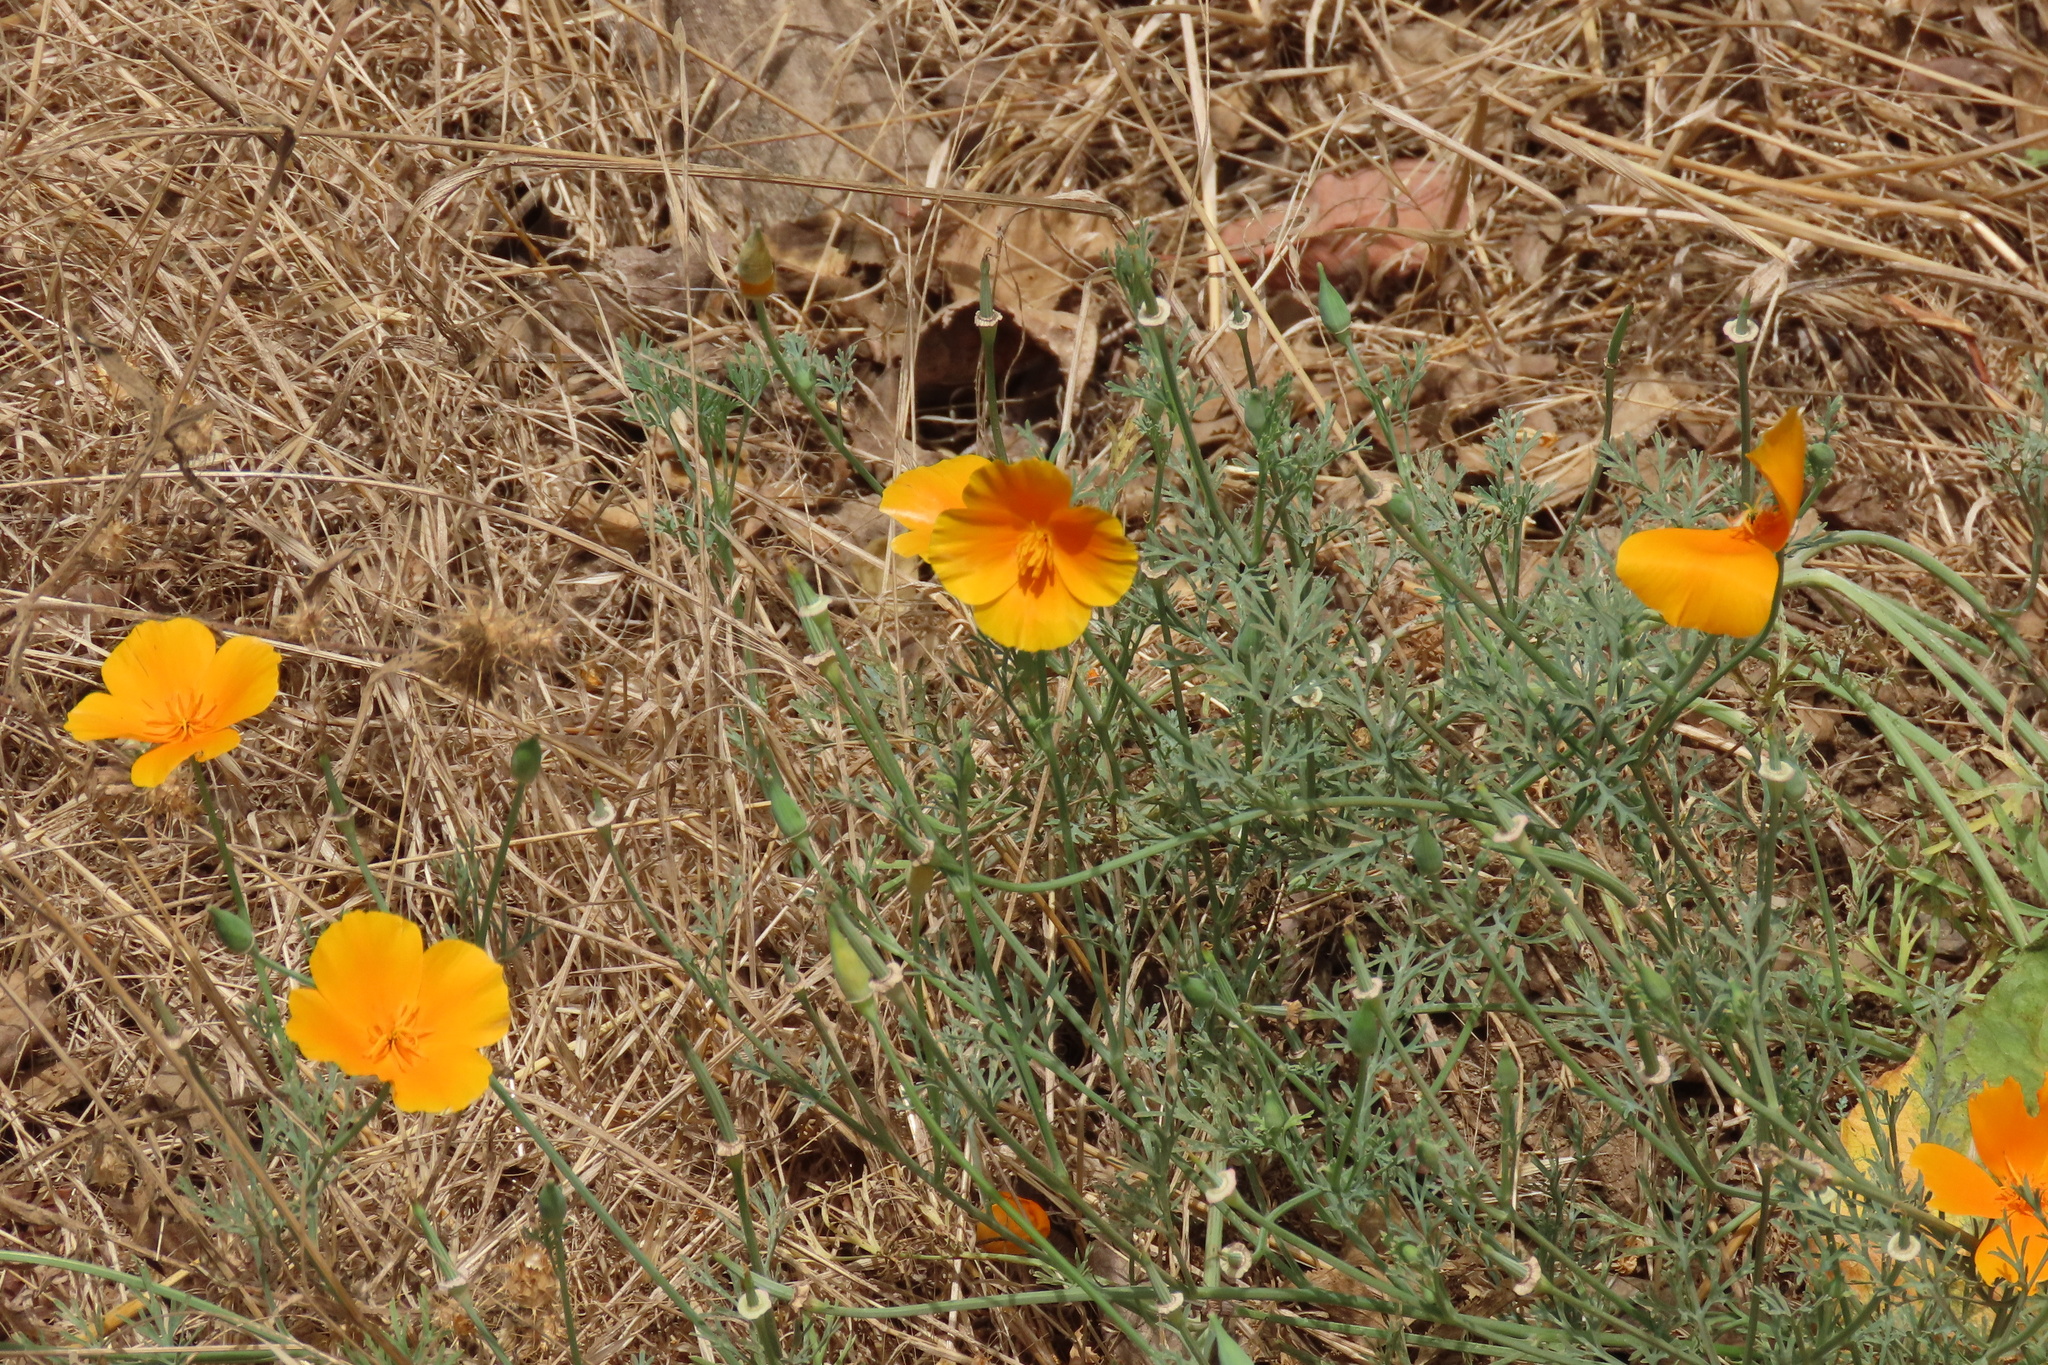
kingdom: Plantae
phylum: Tracheophyta
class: Magnoliopsida
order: Ranunculales
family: Papaveraceae
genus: Eschscholzia
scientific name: Eschscholzia californica
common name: California poppy
